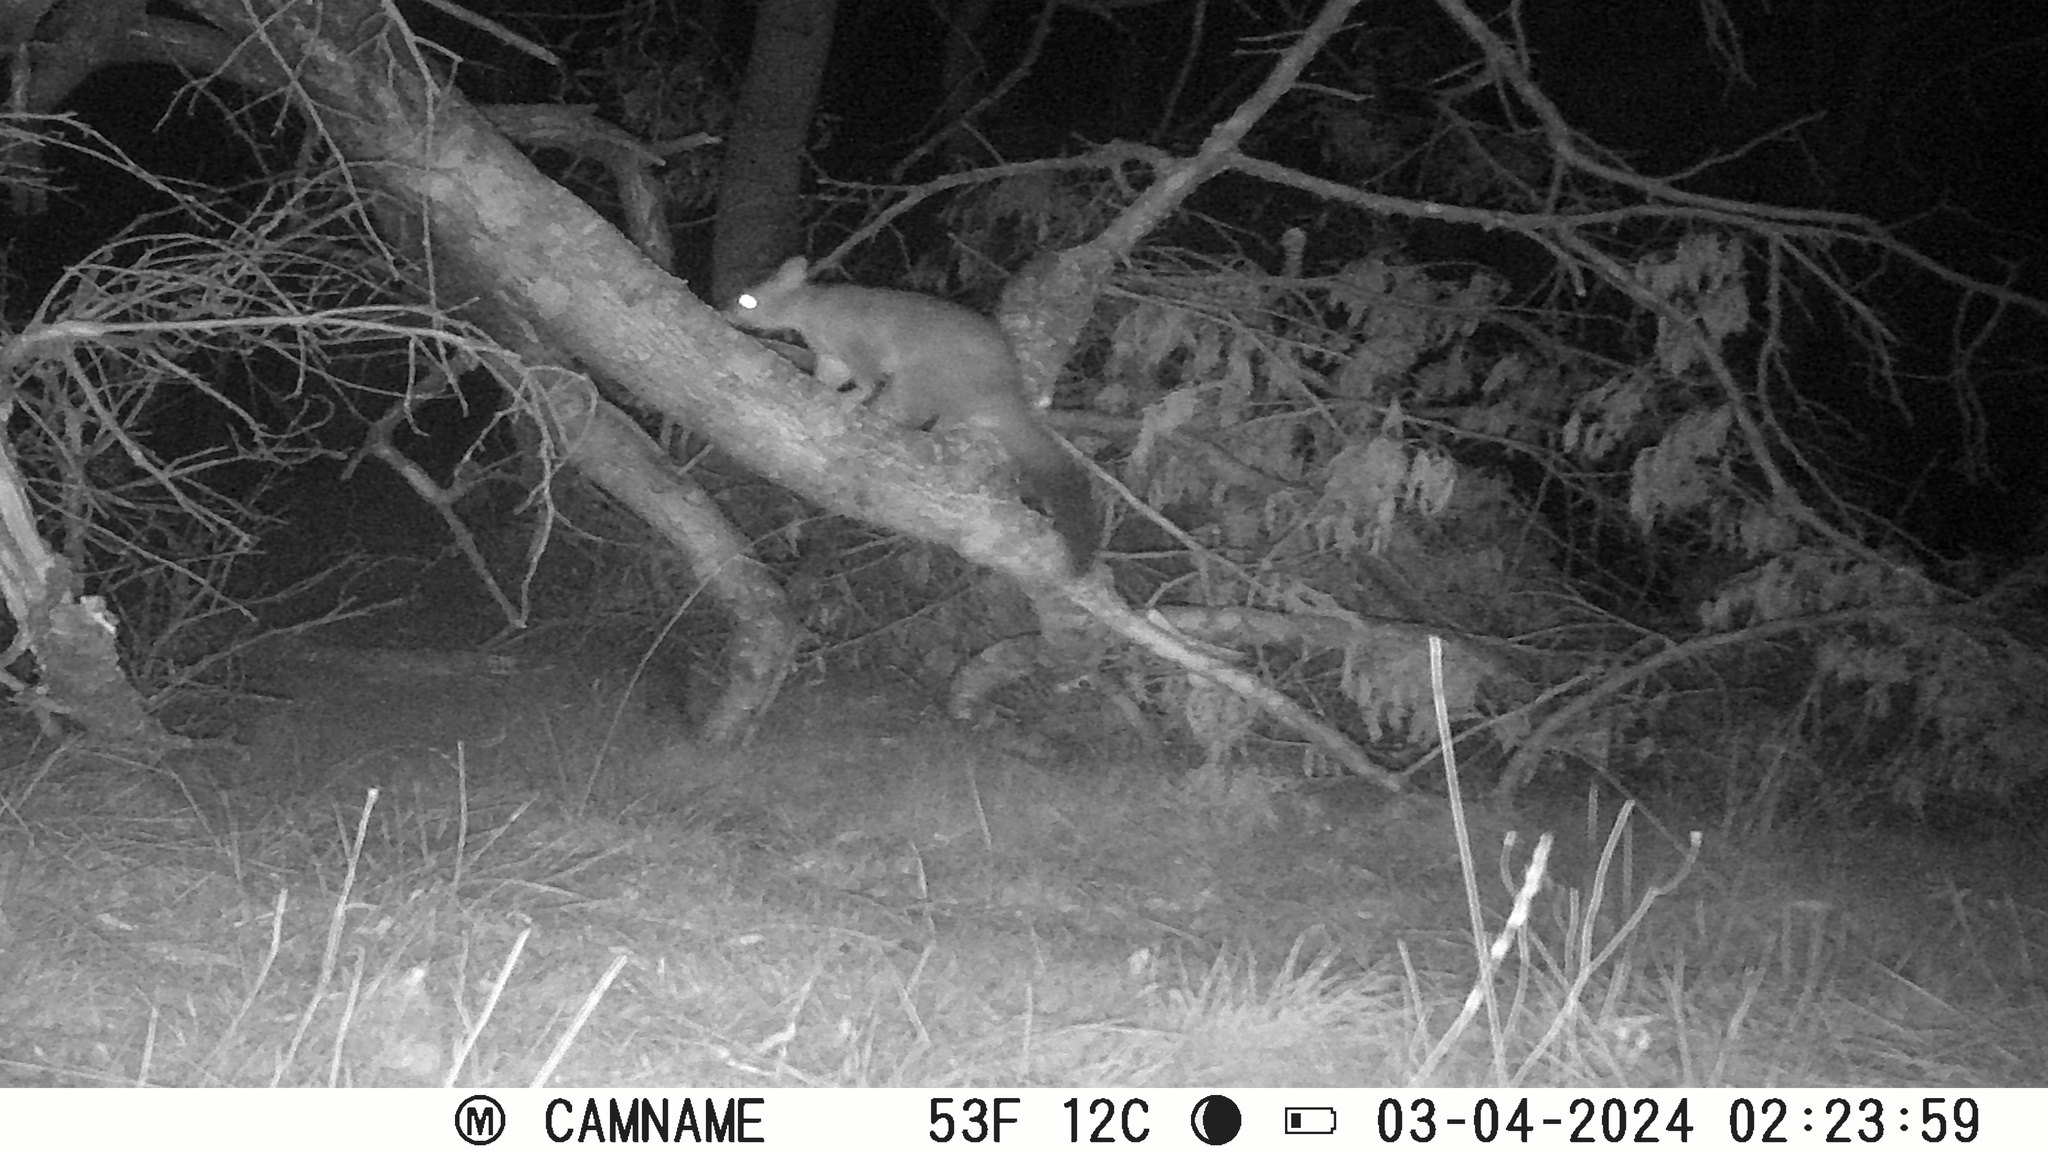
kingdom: Animalia
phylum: Chordata
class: Mammalia
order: Diprotodontia
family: Phalangeridae
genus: Trichosurus
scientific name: Trichosurus vulpecula
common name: Common brushtail
